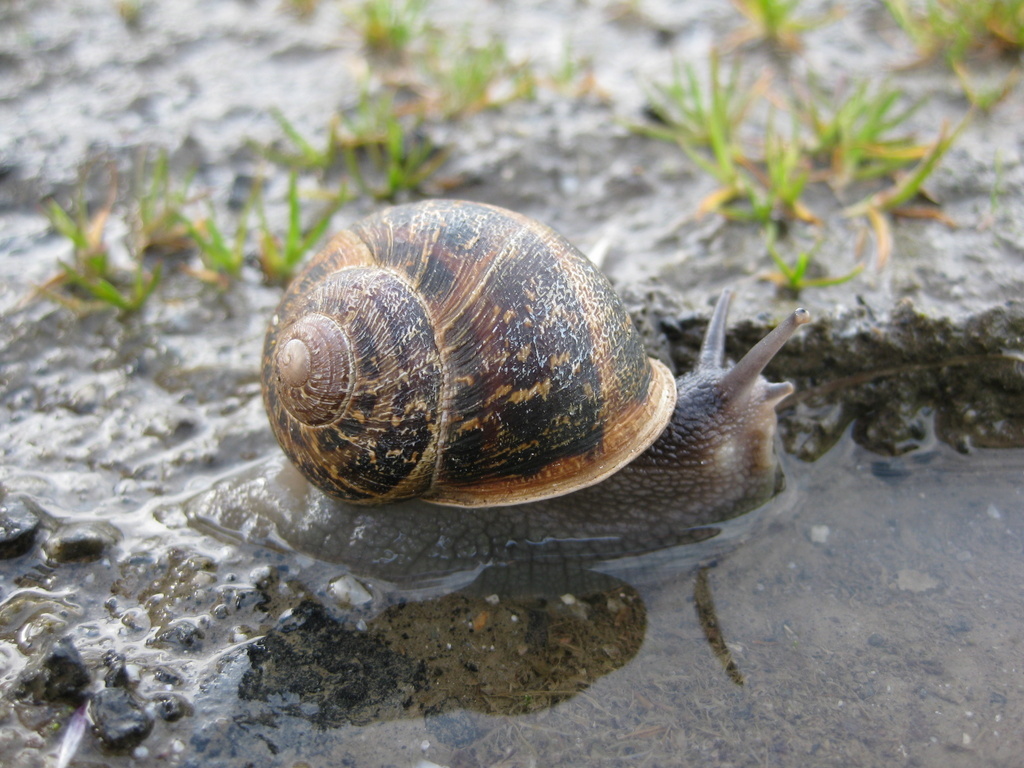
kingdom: Animalia
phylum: Mollusca
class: Gastropoda
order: Stylommatophora
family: Helicidae
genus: Cornu
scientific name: Cornu aspersum
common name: Brown garden snail
